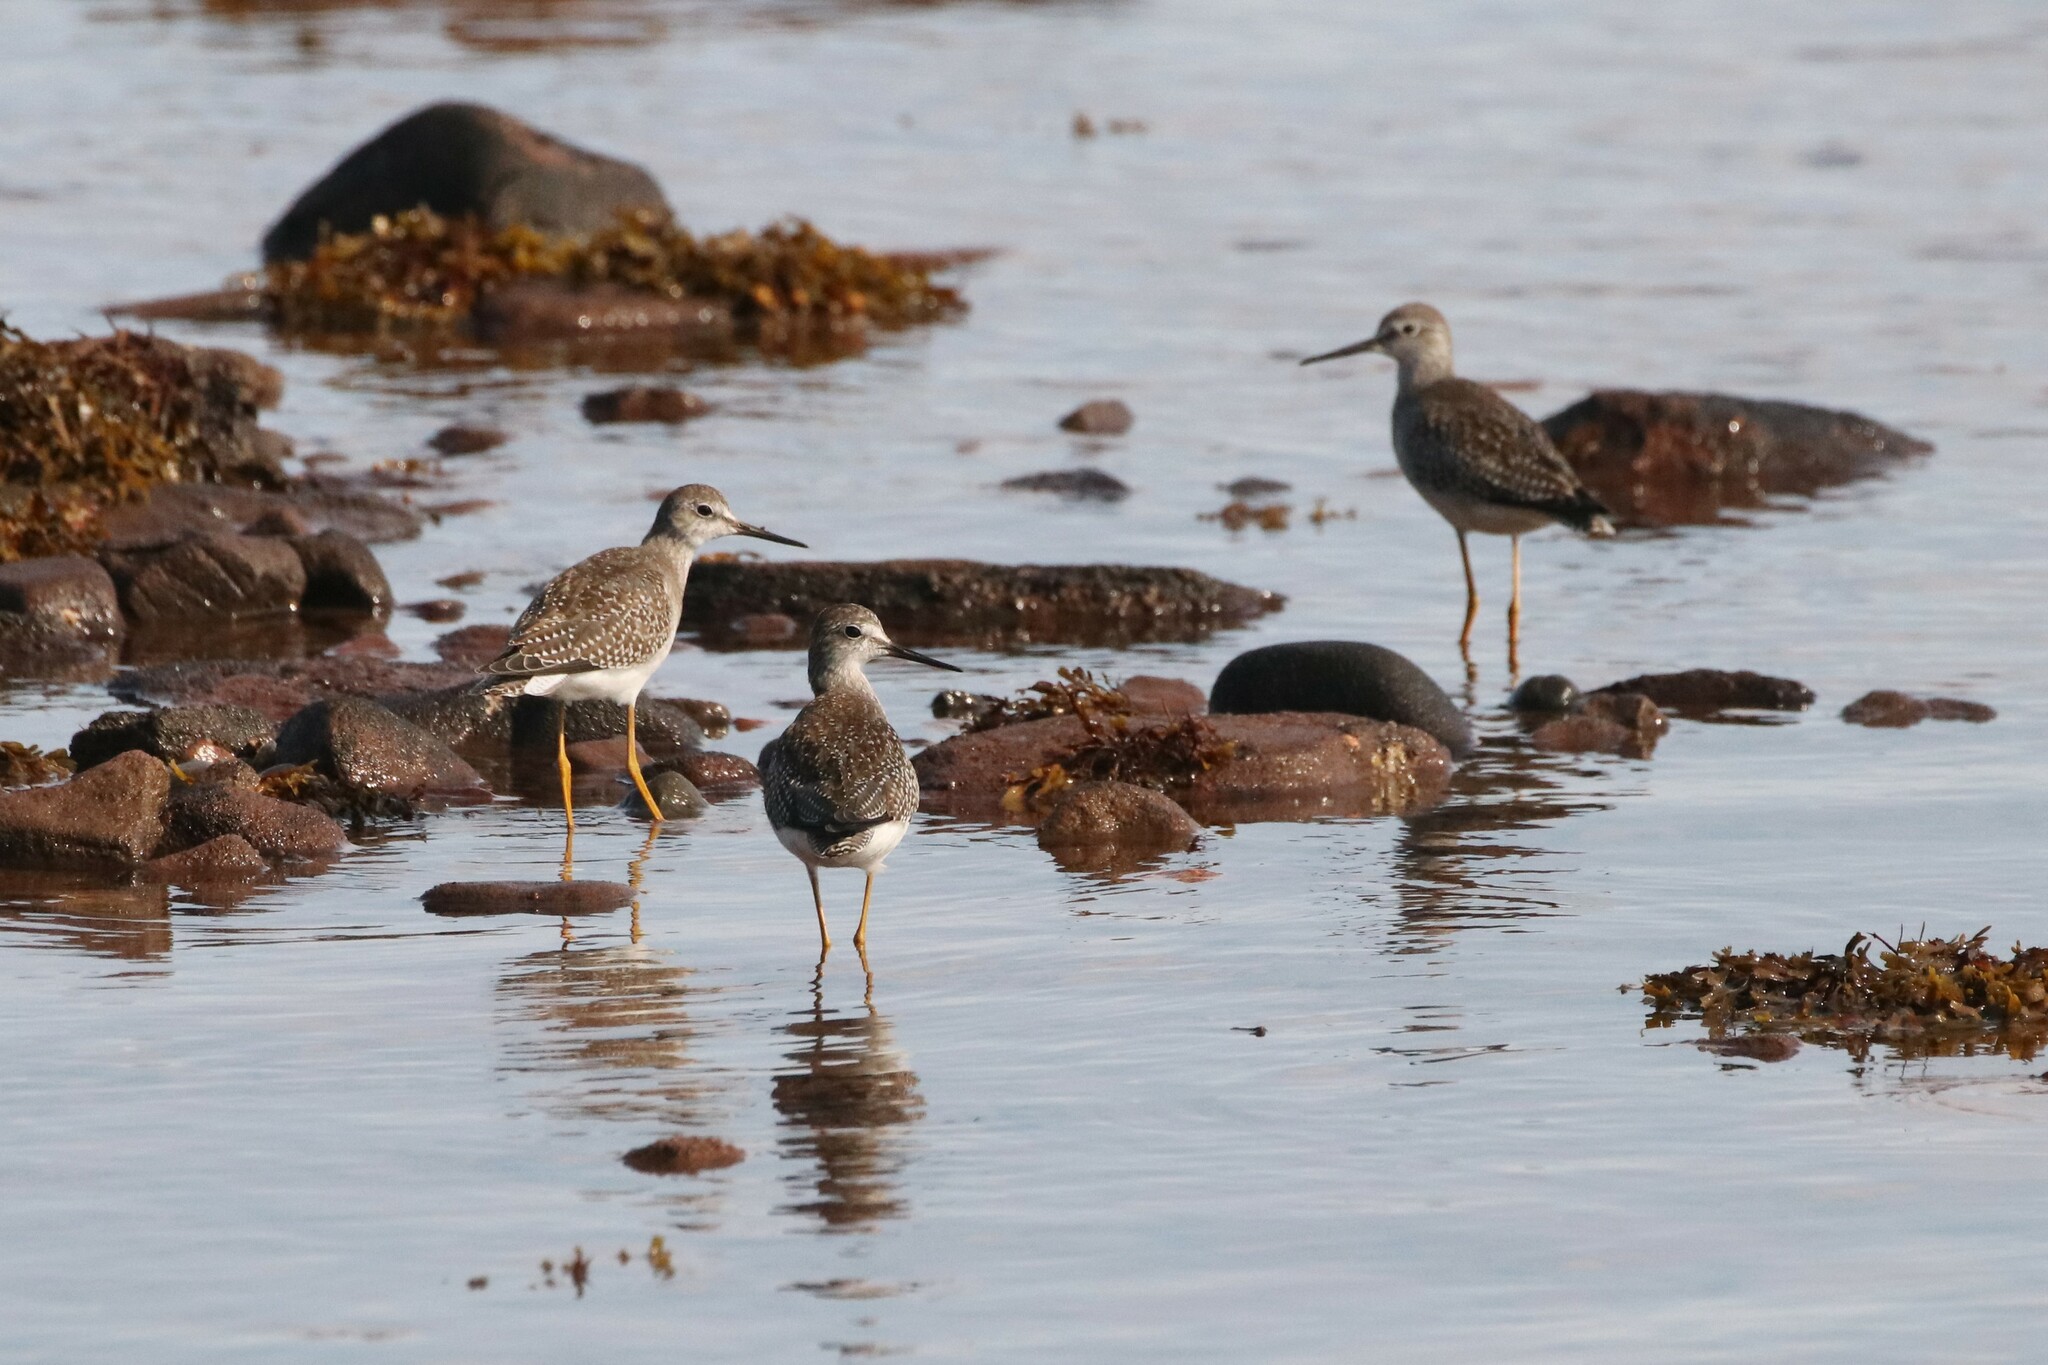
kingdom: Animalia
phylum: Chordata
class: Aves
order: Charadriiformes
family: Scolopacidae
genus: Tringa
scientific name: Tringa melanoleuca
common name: Greater yellowlegs
